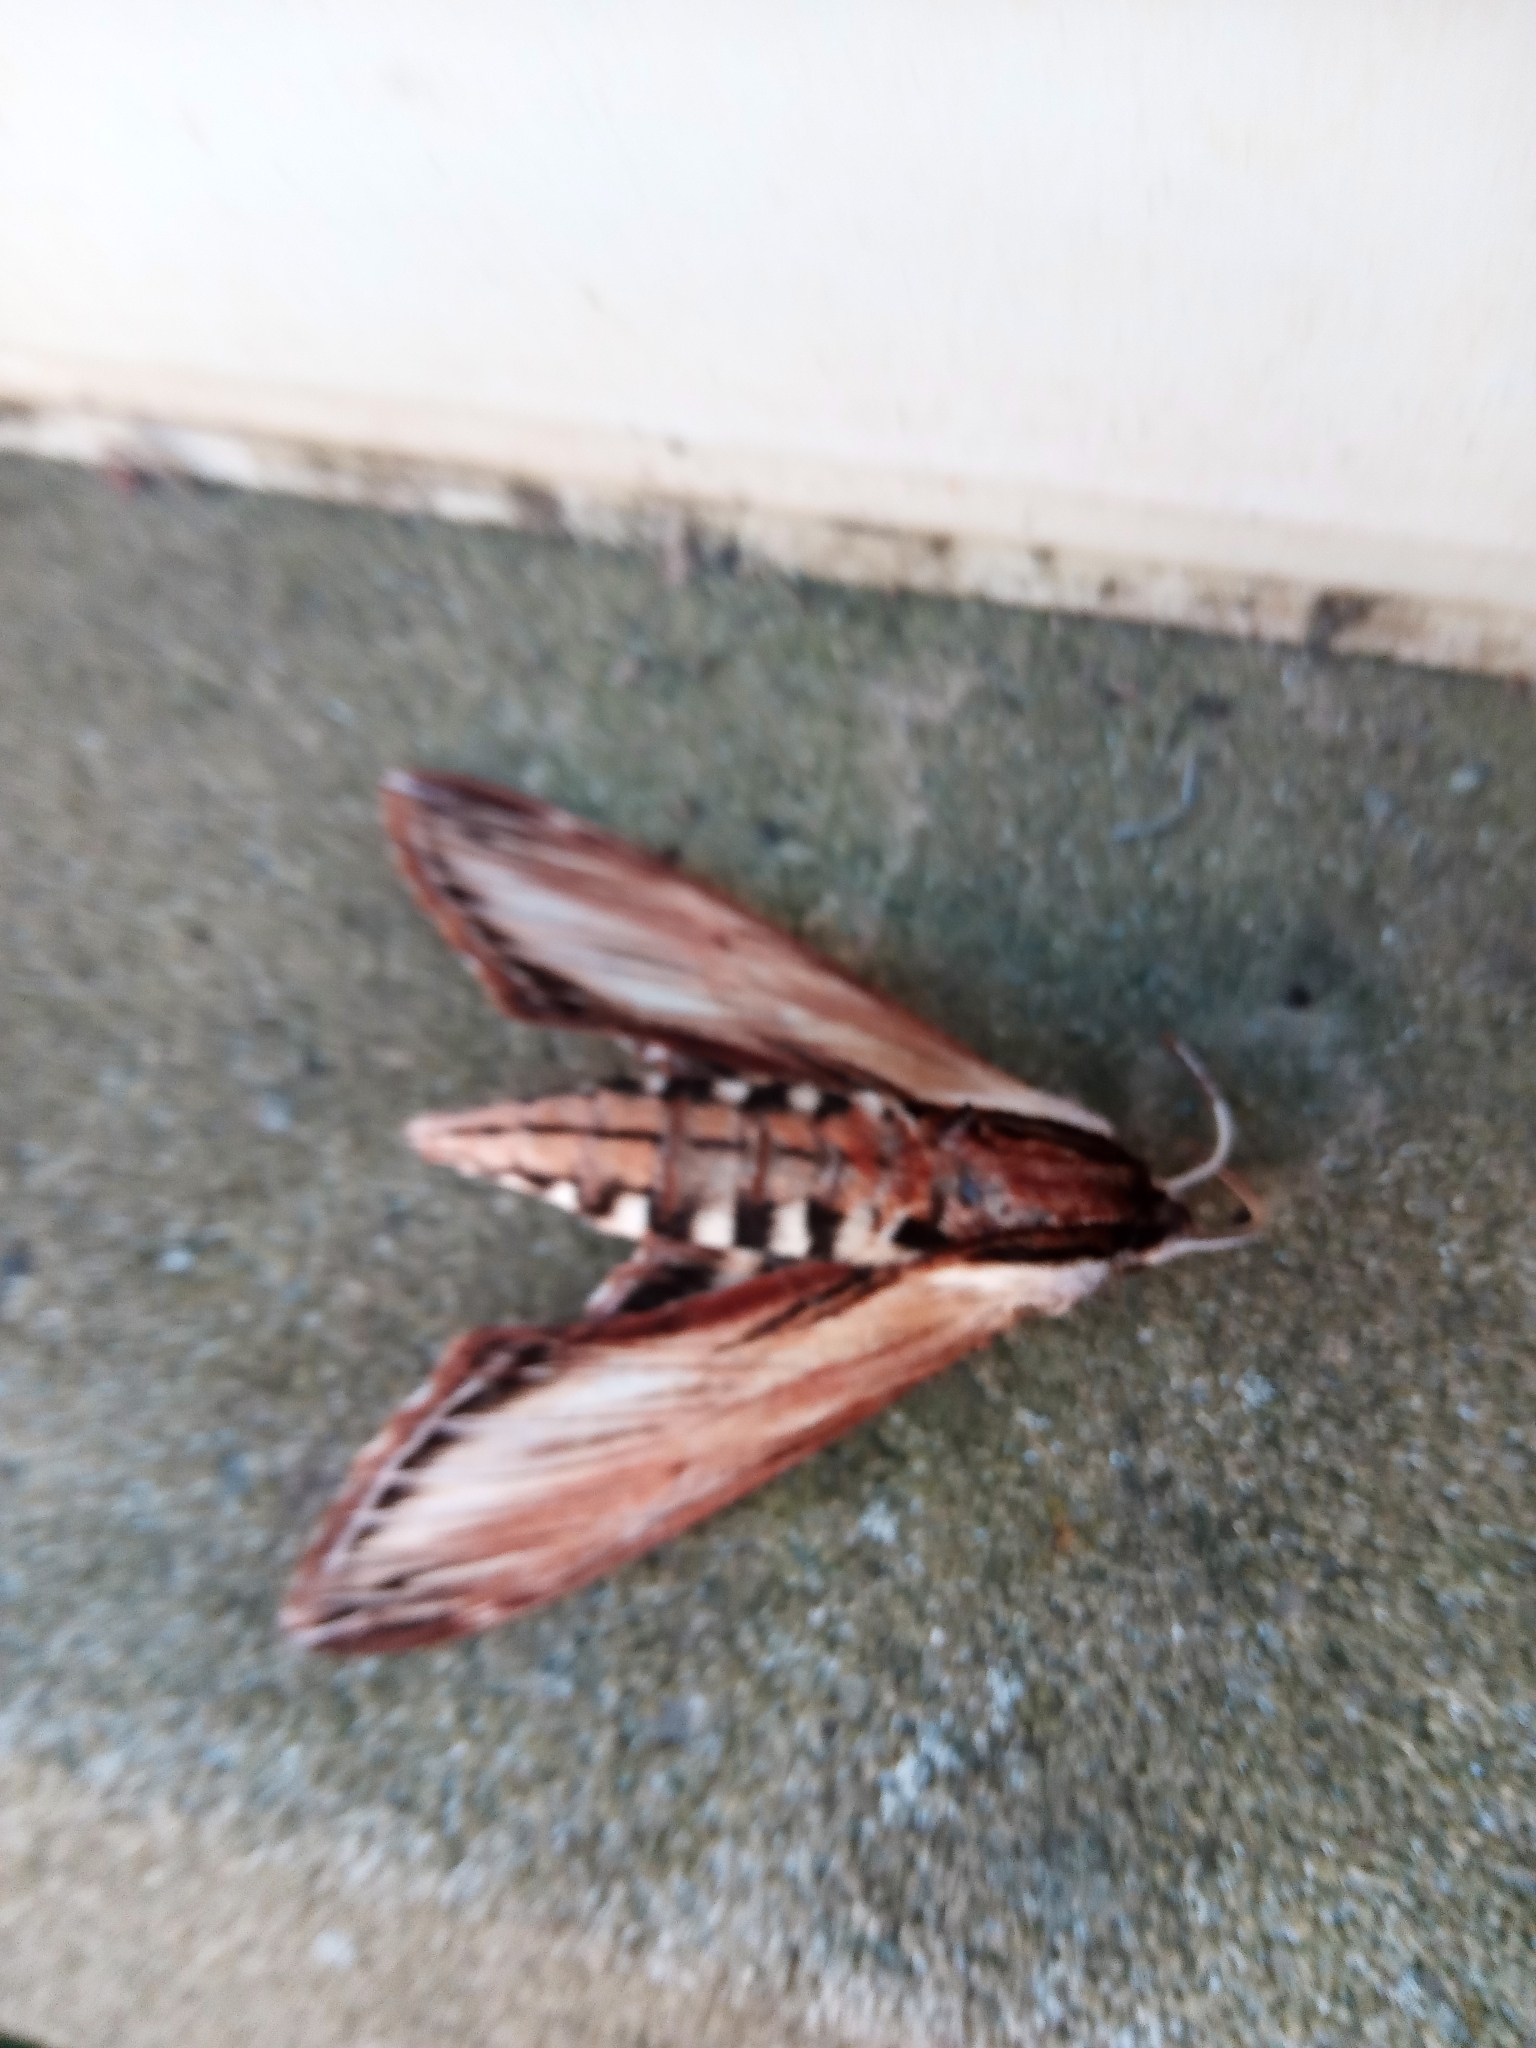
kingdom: Animalia
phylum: Arthropoda
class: Insecta
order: Lepidoptera
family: Sphingidae
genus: Sphinx
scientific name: Sphinx kalmiae
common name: Laurel sphinx
